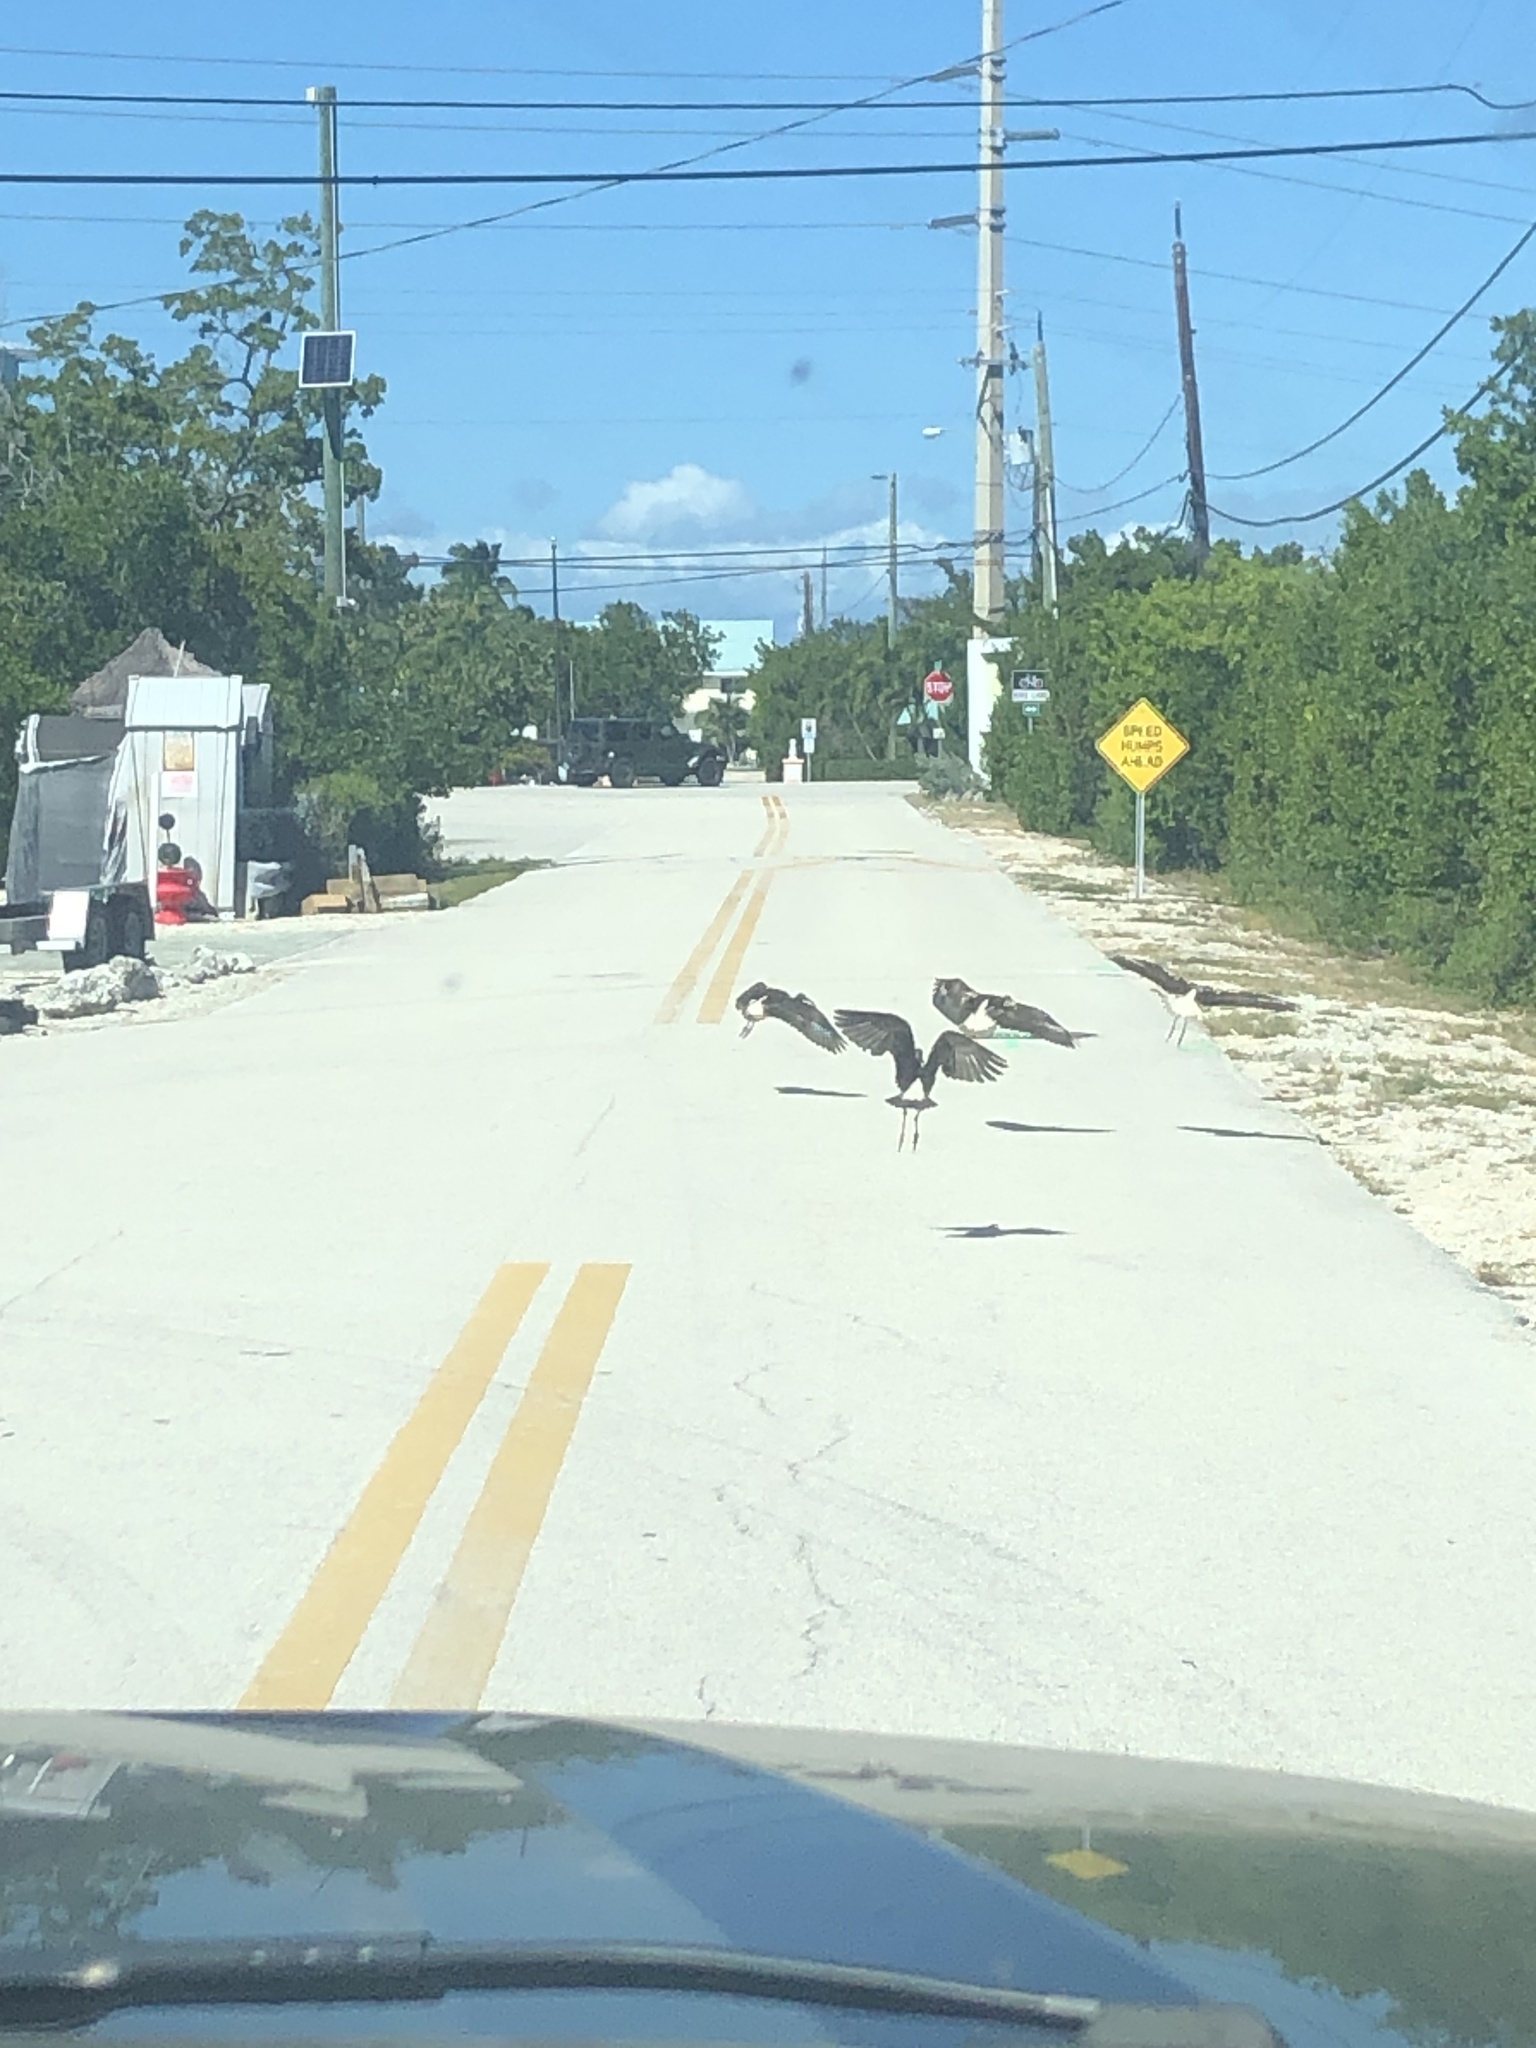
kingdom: Animalia
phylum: Chordata
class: Aves
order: Pelecaniformes
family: Threskiornithidae
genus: Eudocimus
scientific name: Eudocimus albus
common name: White ibis
